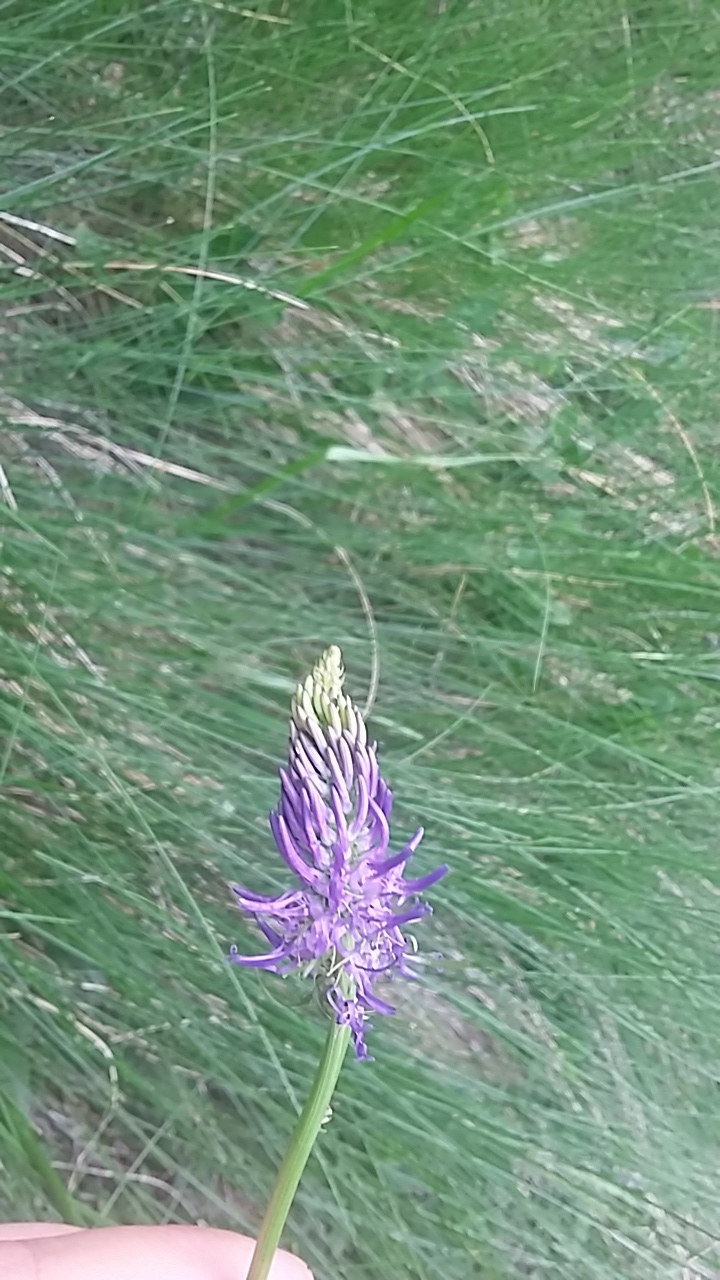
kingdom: Plantae
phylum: Tracheophyta
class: Magnoliopsida
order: Asterales
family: Campanulaceae
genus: Phyteuma
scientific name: Phyteuma betonicifolium
